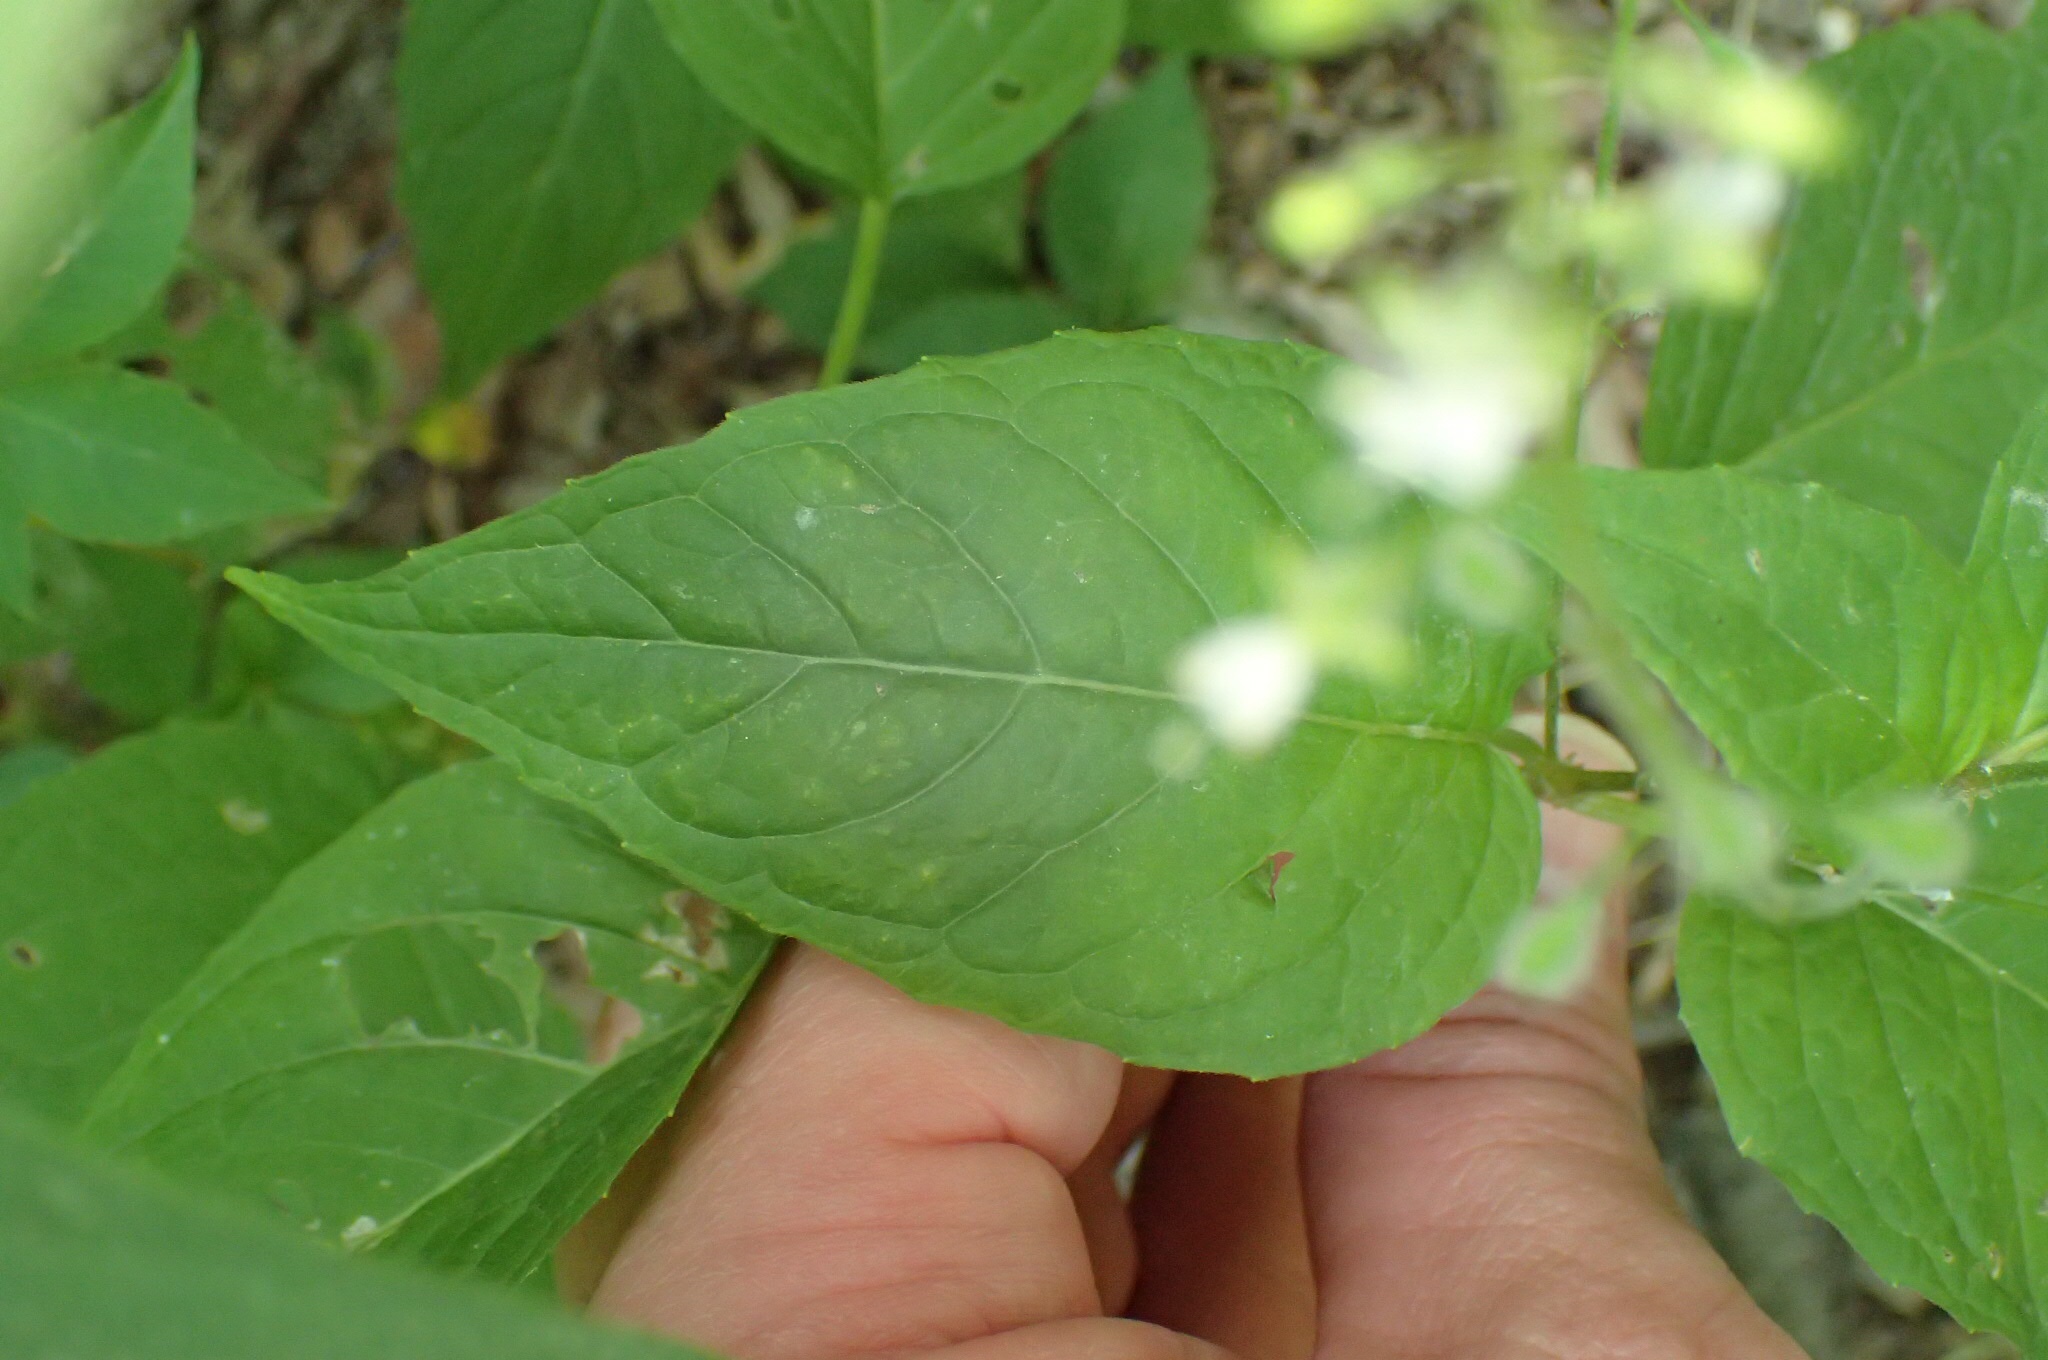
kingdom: Plantae
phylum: Tracheophyta
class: Magnoliopsida
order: Myrtales
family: Onagraceae
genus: Circaea
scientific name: Circaea canadensis
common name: Broad-leaved enchanter's nightshade
